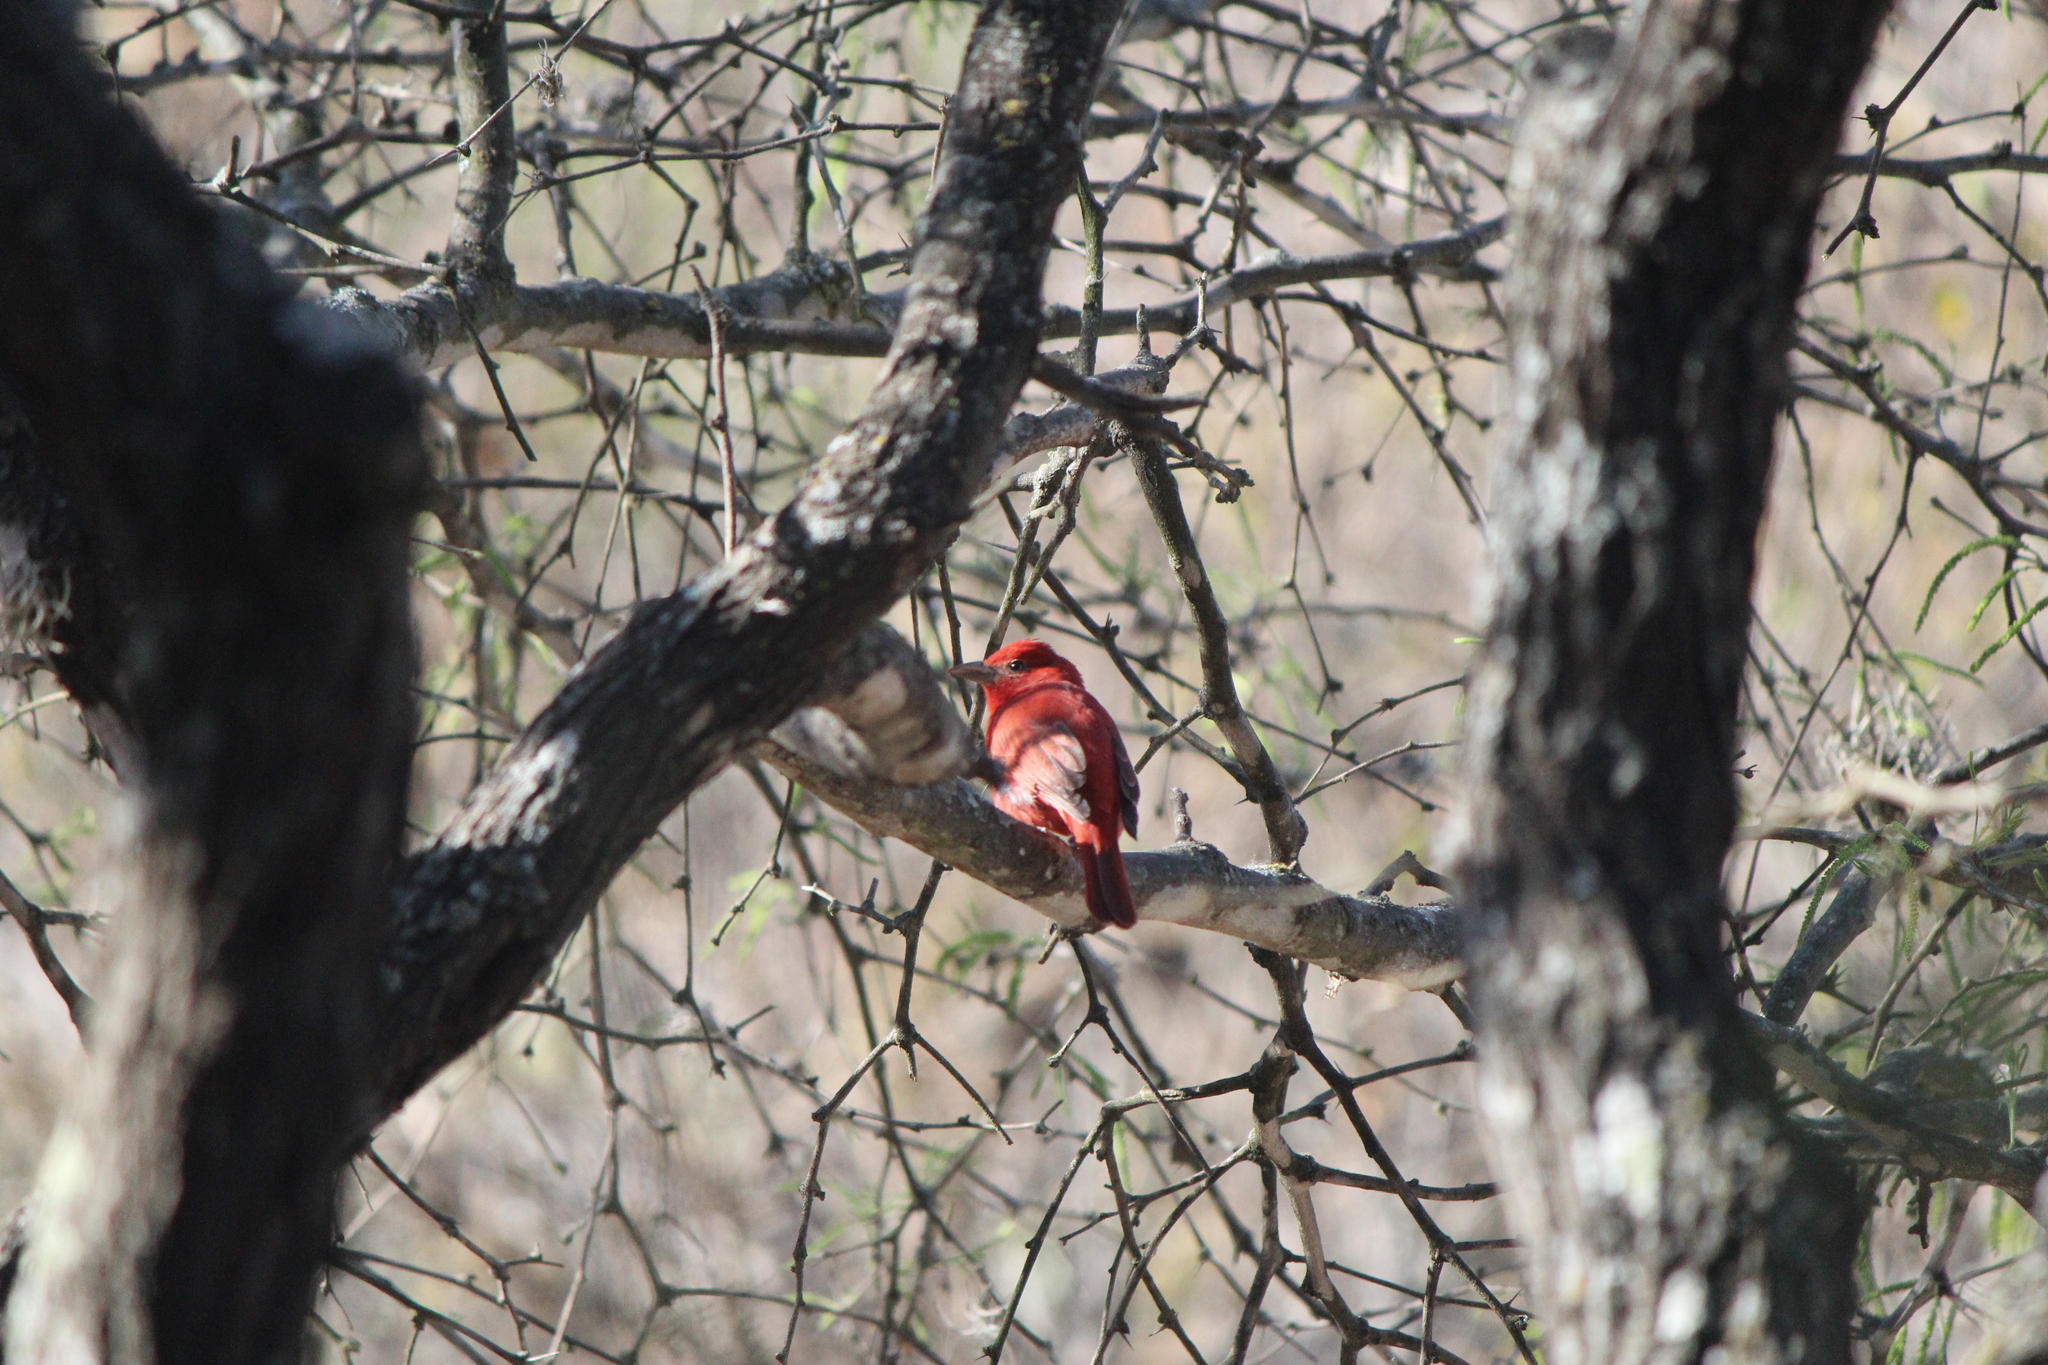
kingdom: Animalia
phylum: Chordata
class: Aves
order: Passeriformes
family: Cardinalidae
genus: Piranga
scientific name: Piranga rubra
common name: Summer tanager
